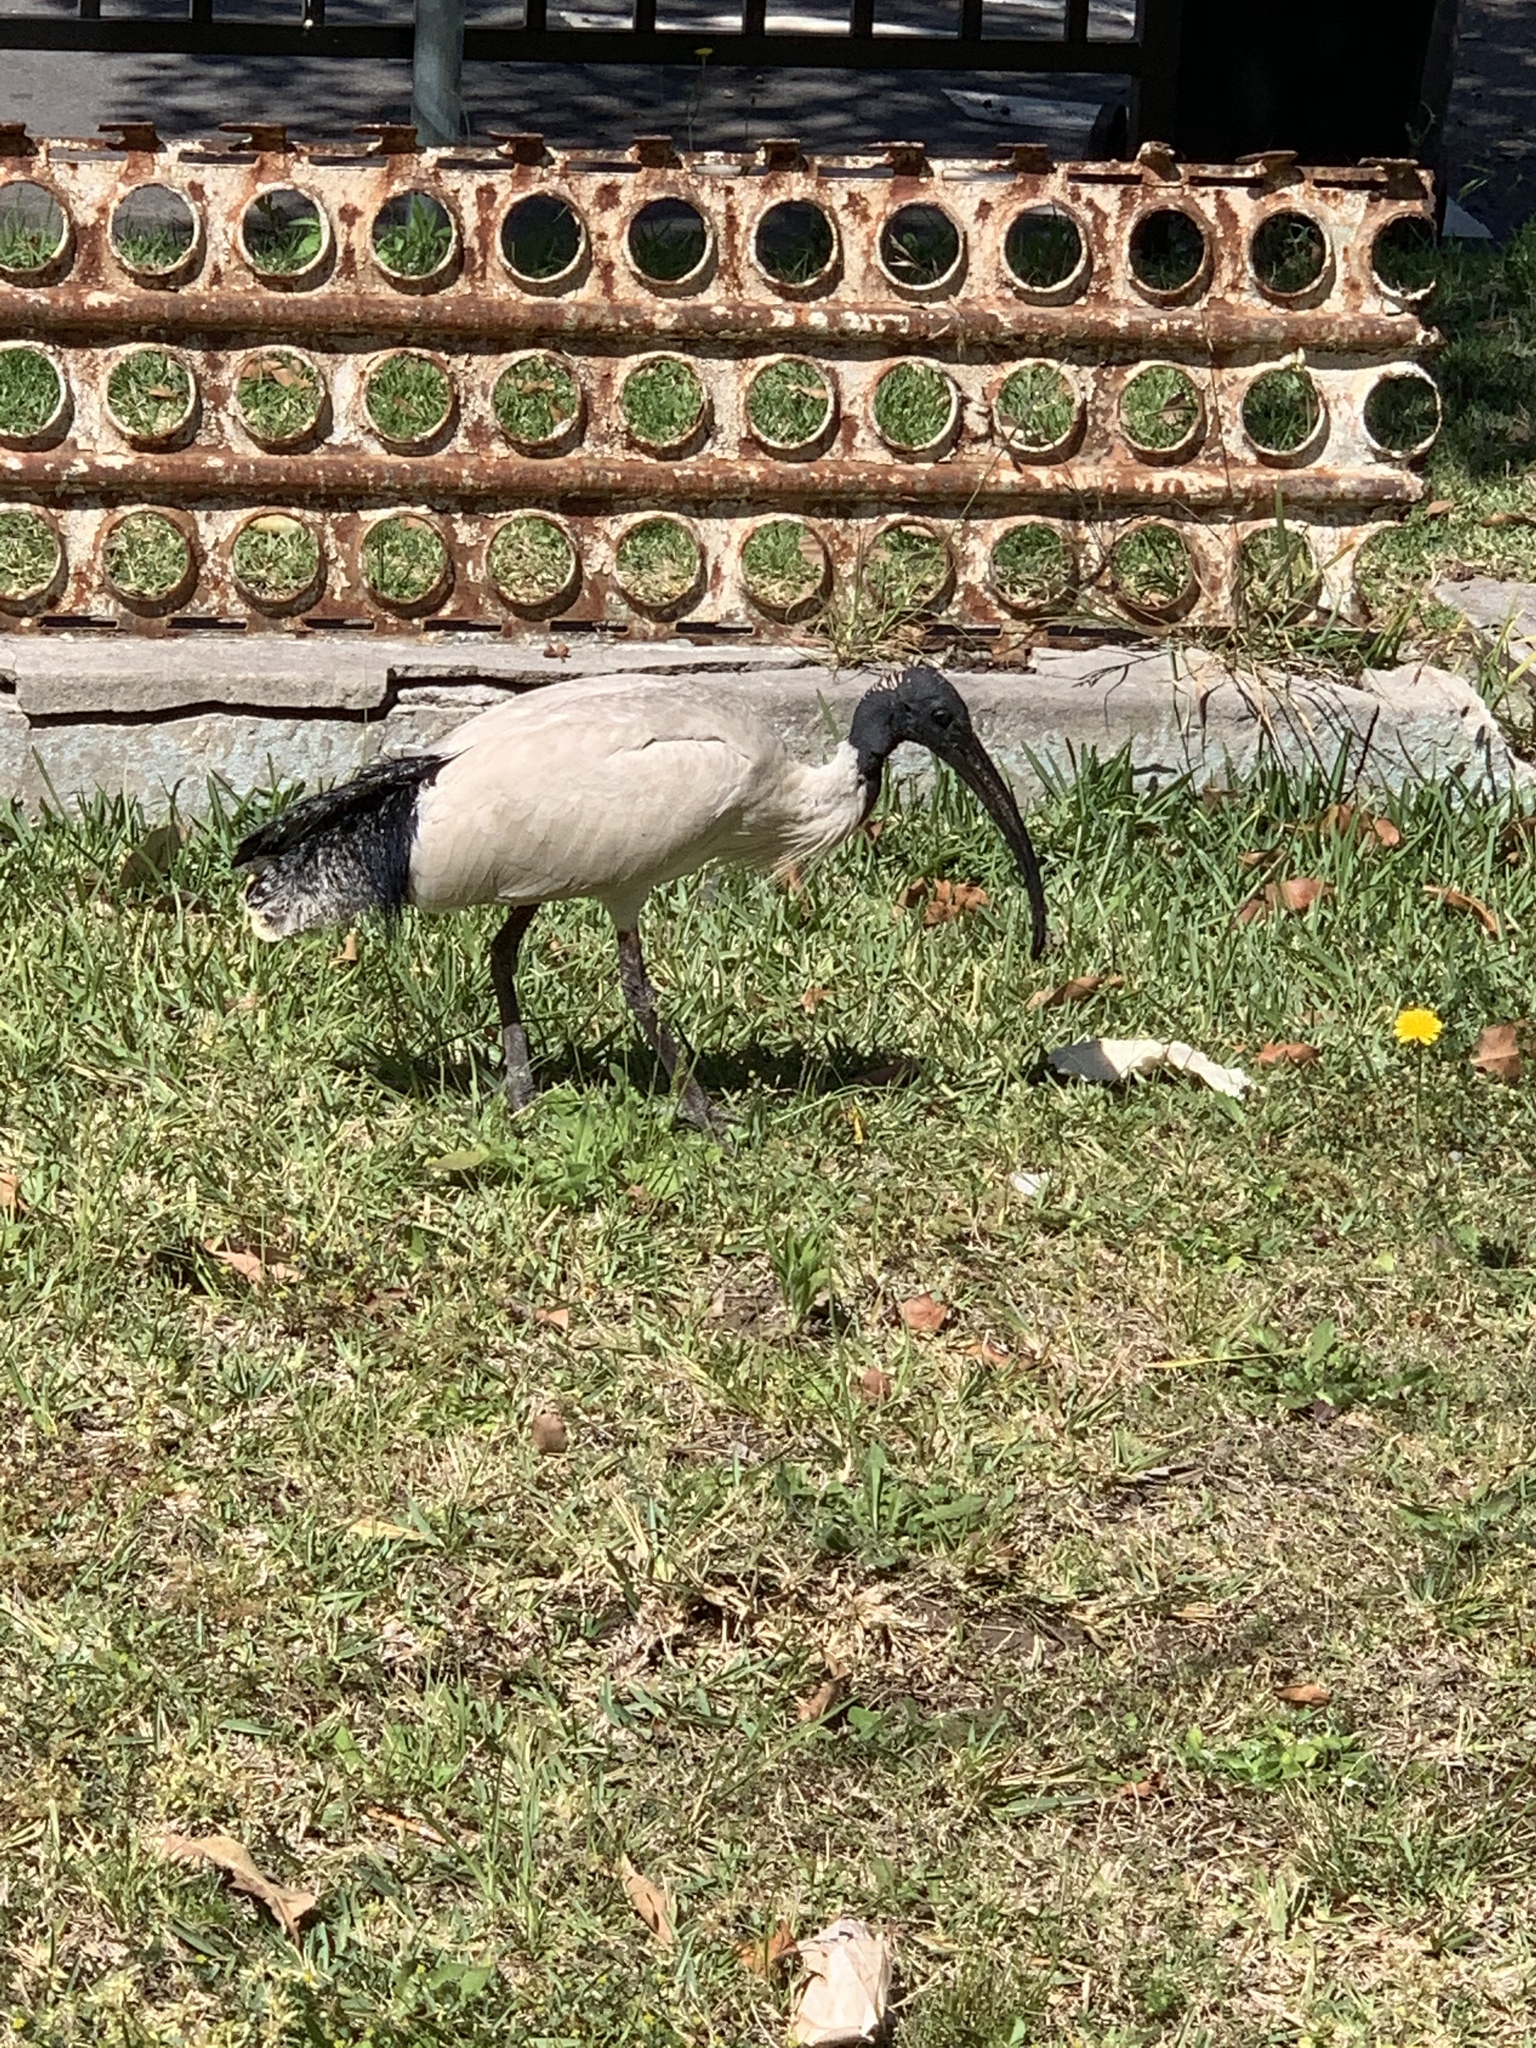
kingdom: Animalia
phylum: Chordata
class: Aves
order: Pelecaniformes
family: Threskiornithidae
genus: Threskiornis
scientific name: Threskiornis molucca
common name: Australian white ibis
